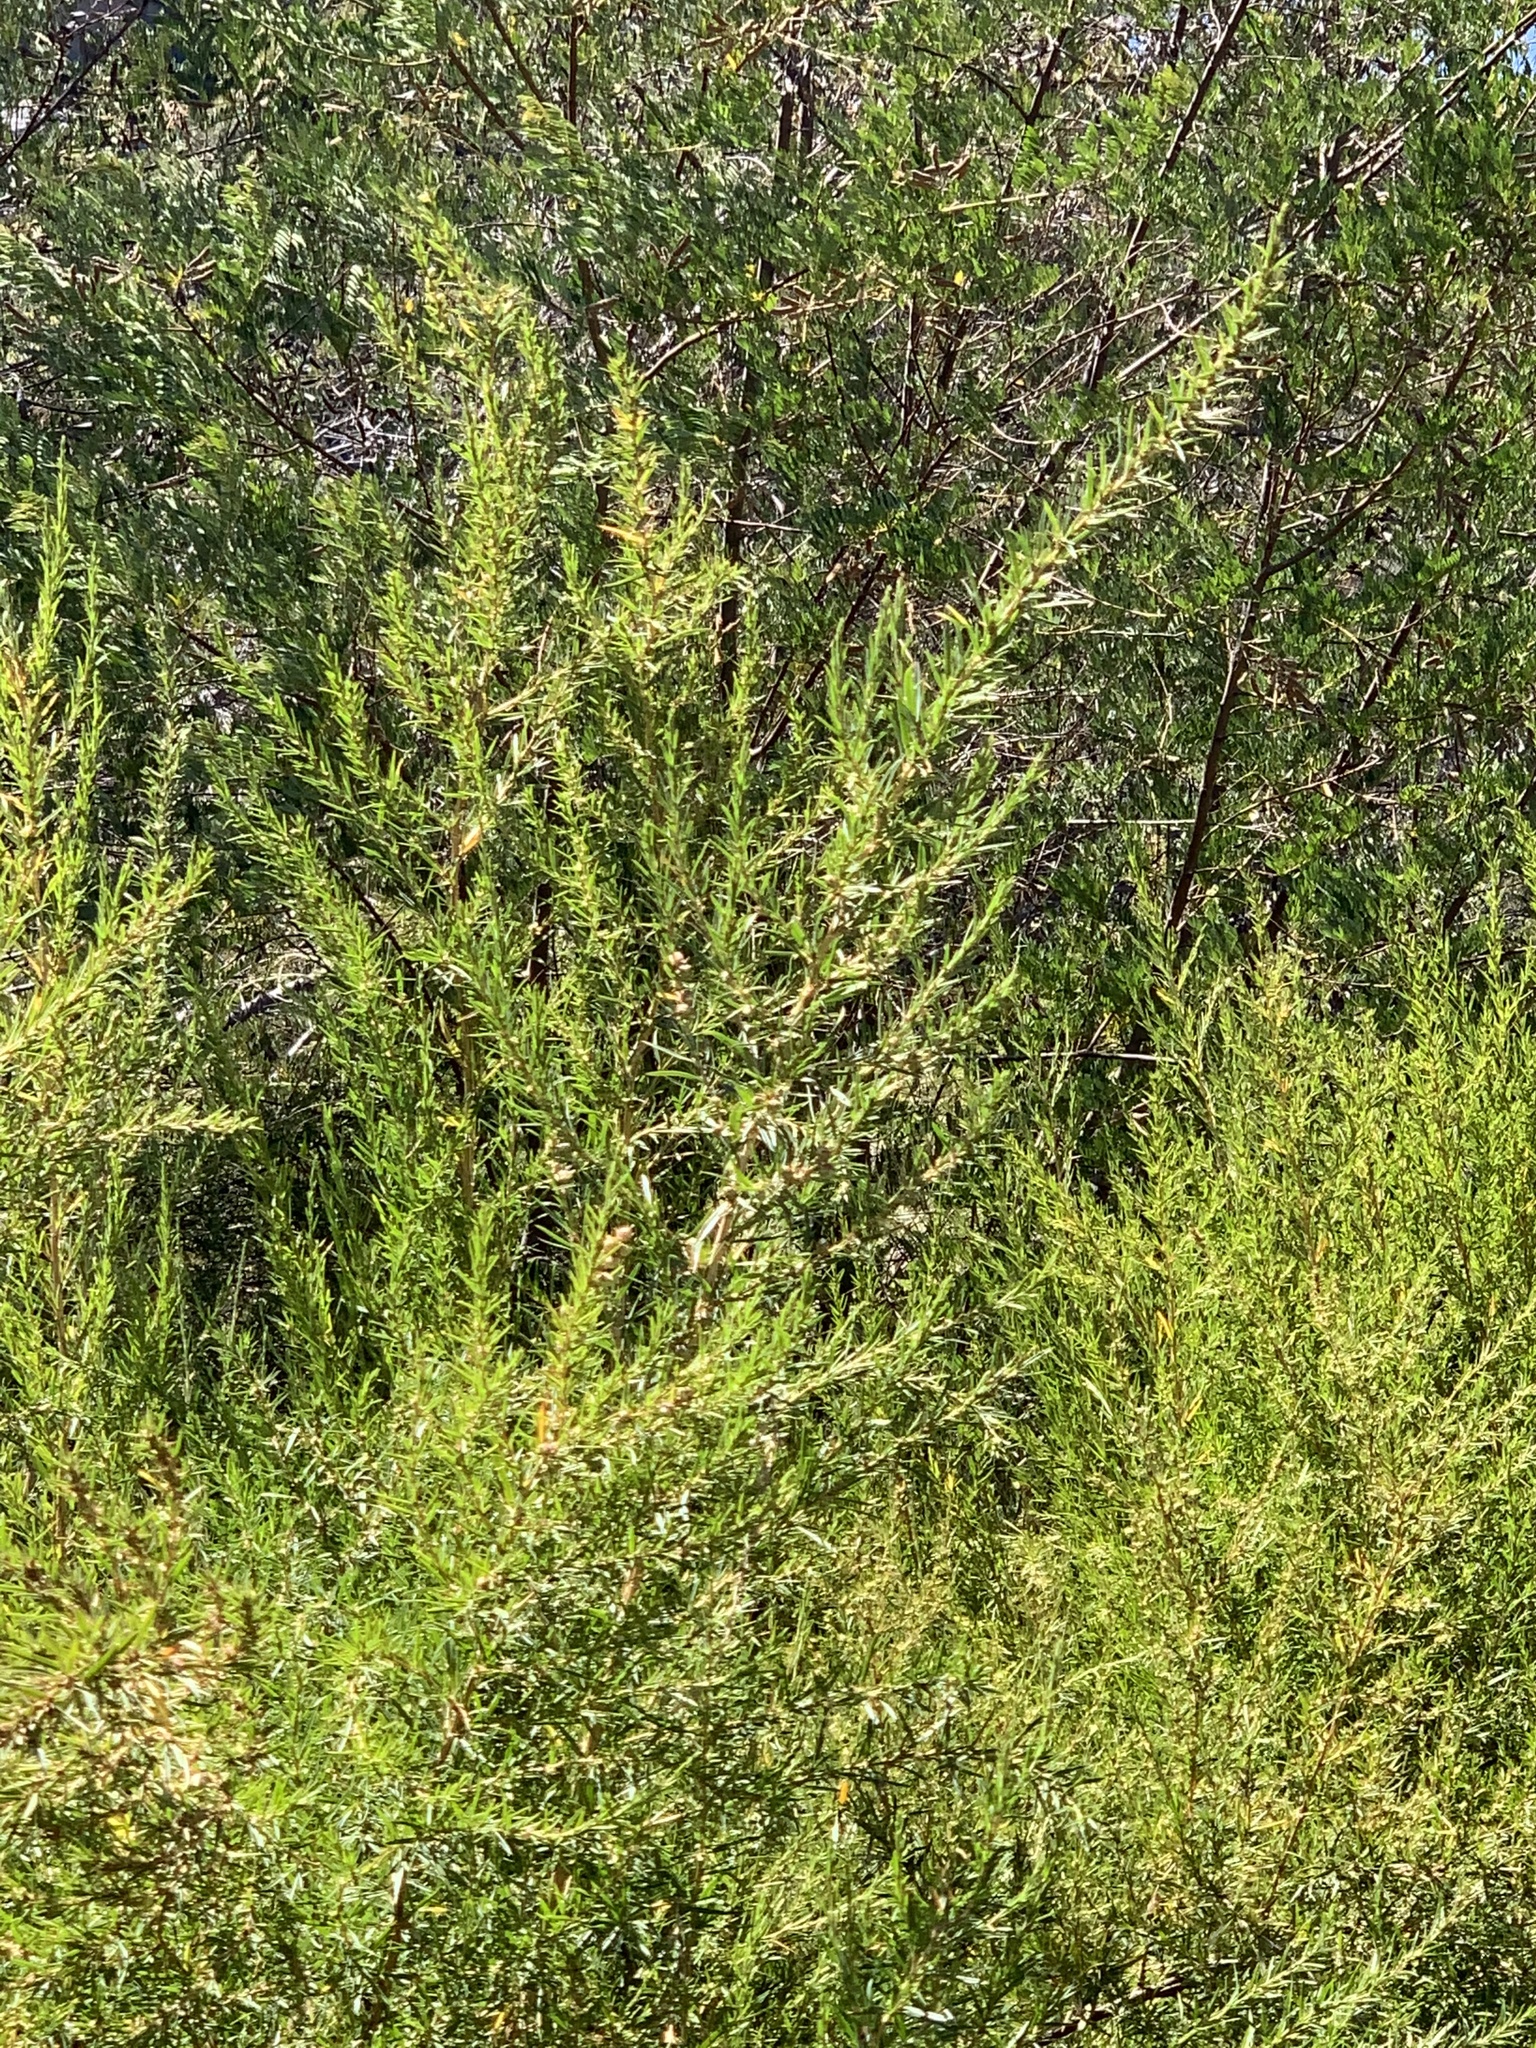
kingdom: Plantae
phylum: Tracheophyta
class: Magnoliopsida
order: Rosales
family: Rosaceae
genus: Cliffortia
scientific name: Cliffortia strobilifera
